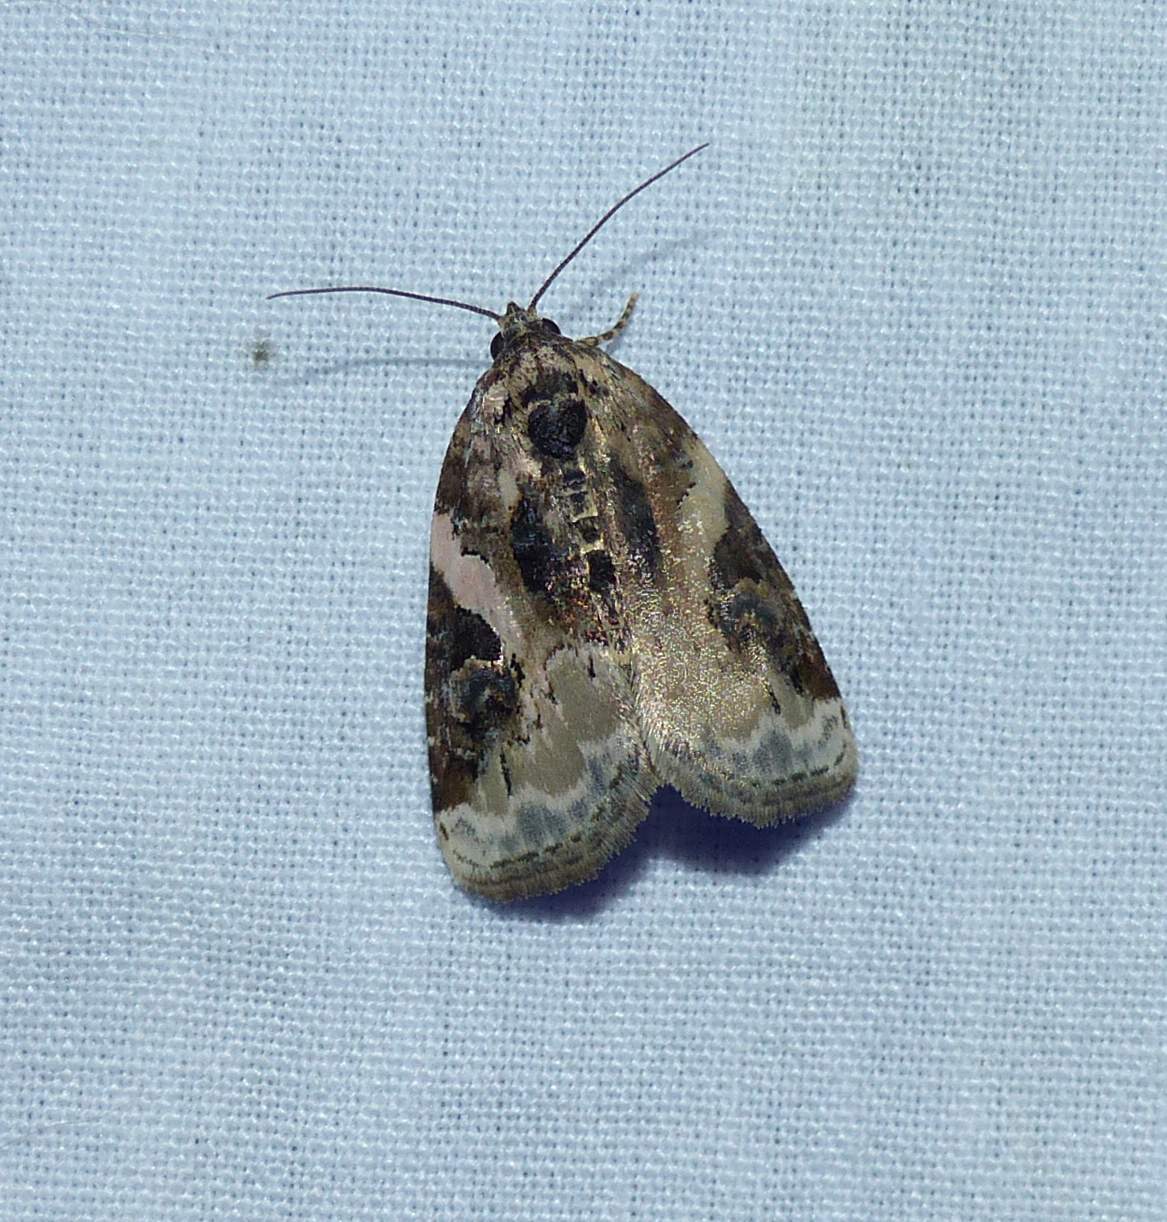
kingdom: Animalia
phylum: Arthropoda
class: Insecta
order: Lepidoptera
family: Noctuidae
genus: Pseudeustrotia
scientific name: Pseudeustrotia carneola
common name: Pink-barred lithacodia moth
